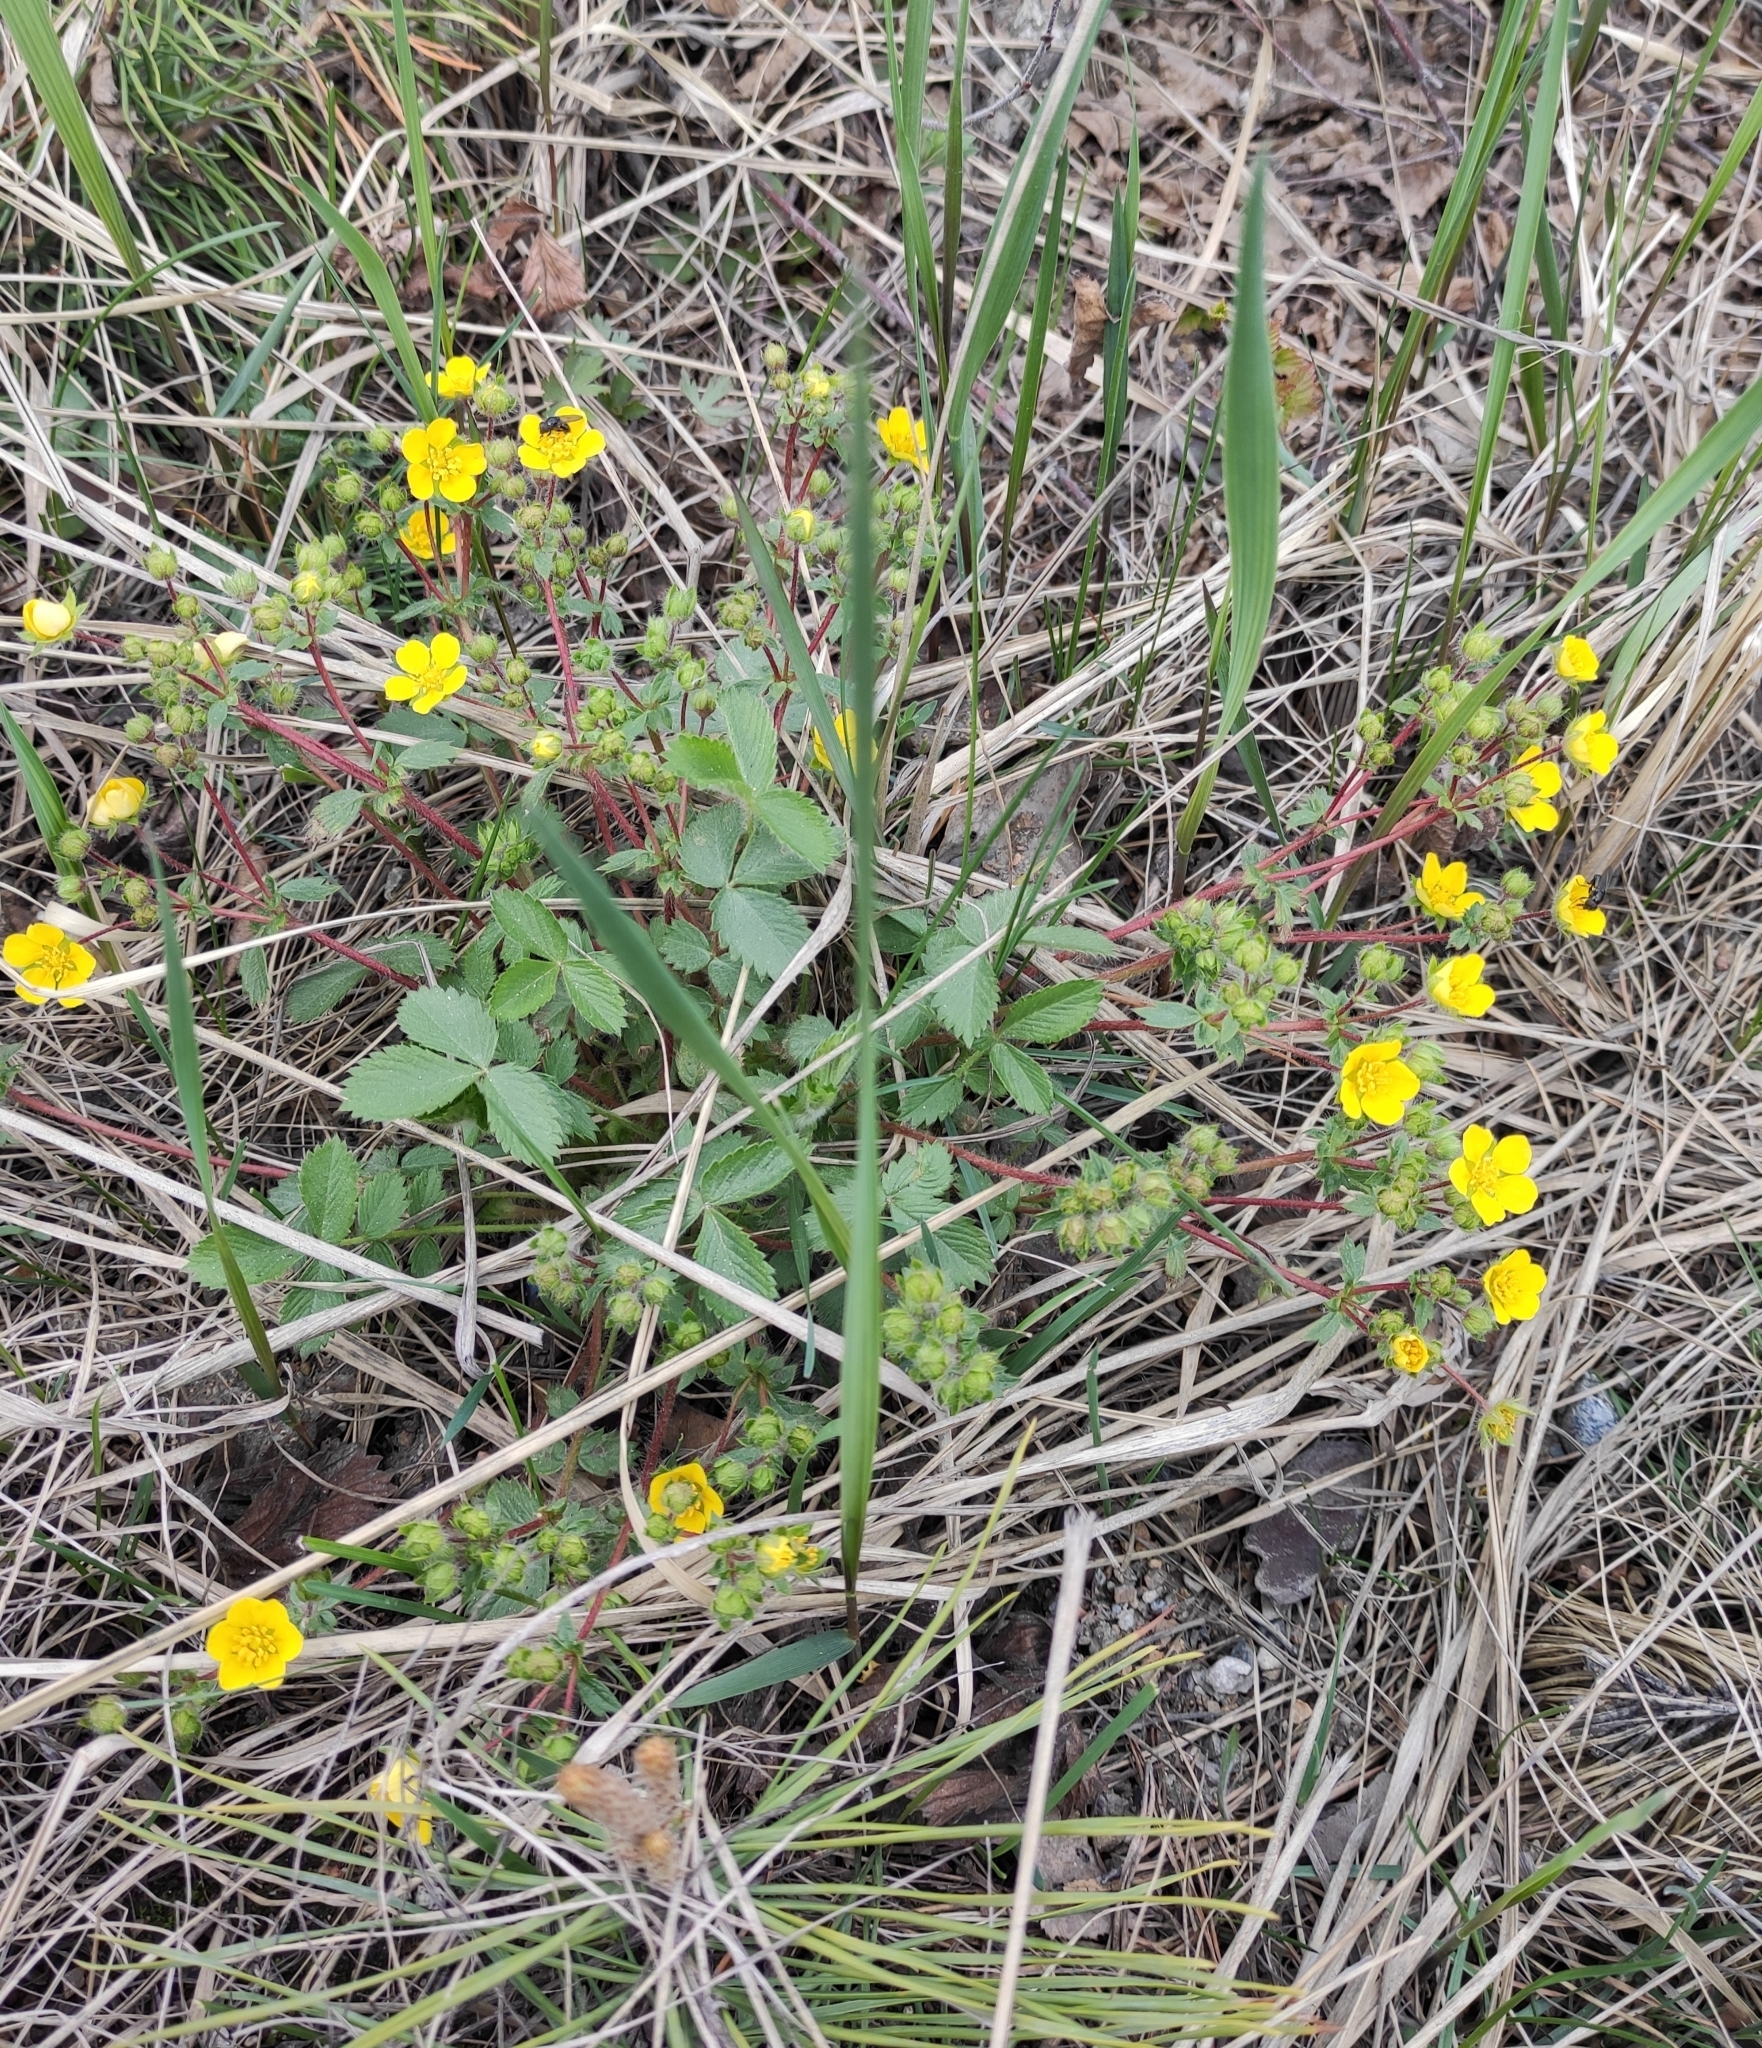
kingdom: Plantae
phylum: Tracheophyta
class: Magnoliopsida
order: Rosales
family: Rosaceae
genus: Potentilla
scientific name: Potentilla fragarioides
